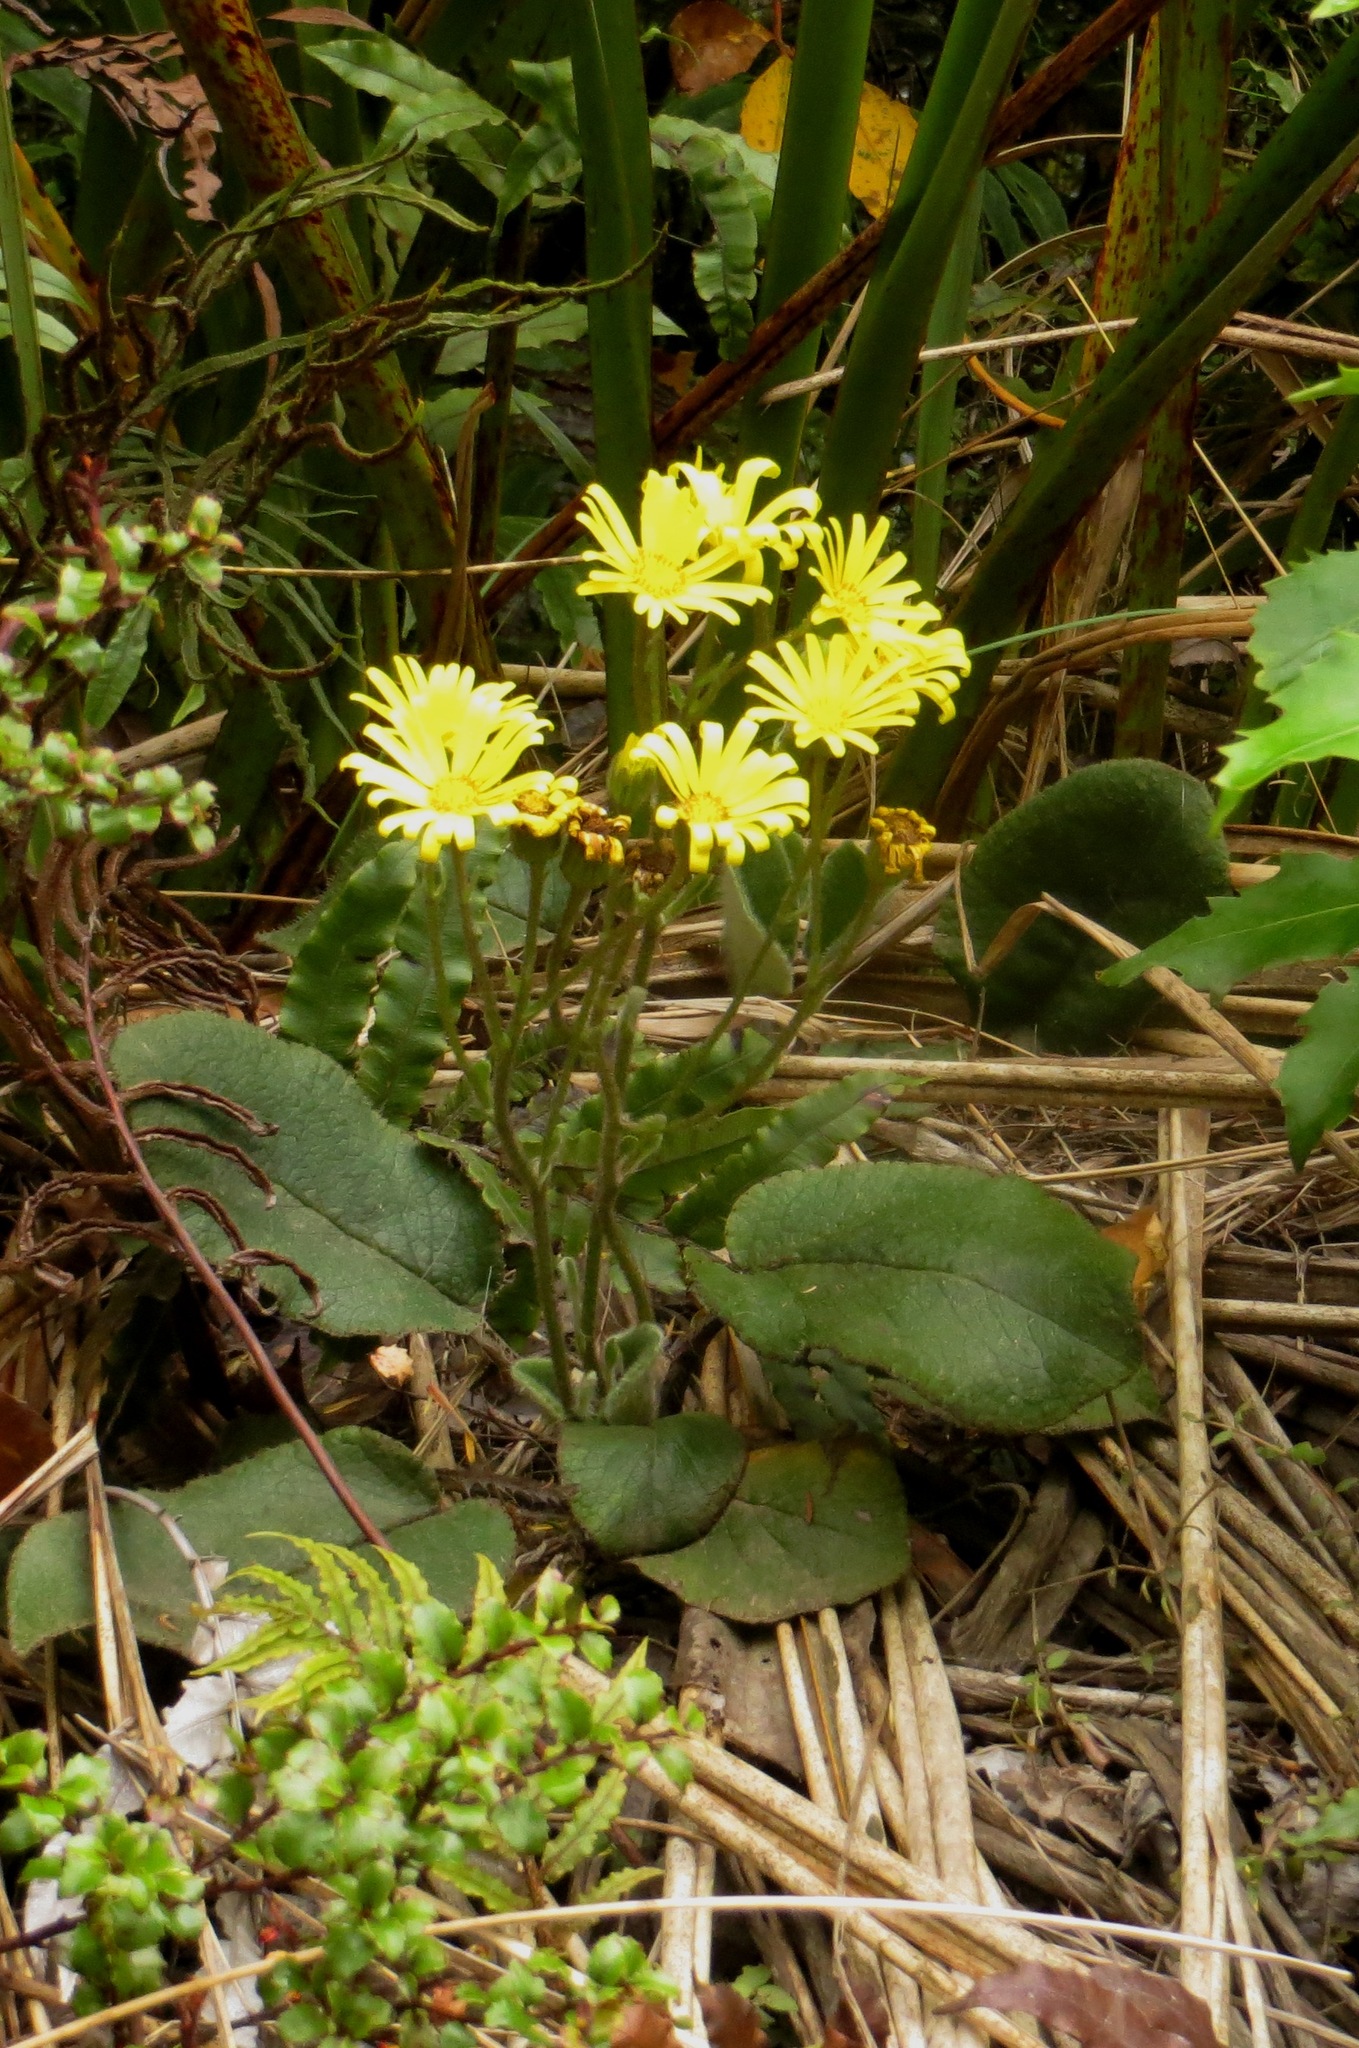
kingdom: Plantae
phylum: Tracheophyta
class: Magnoliopsida
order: Asterales
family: Asteraceae
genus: Brachyglottis
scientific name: Brachyglottis lagopus
